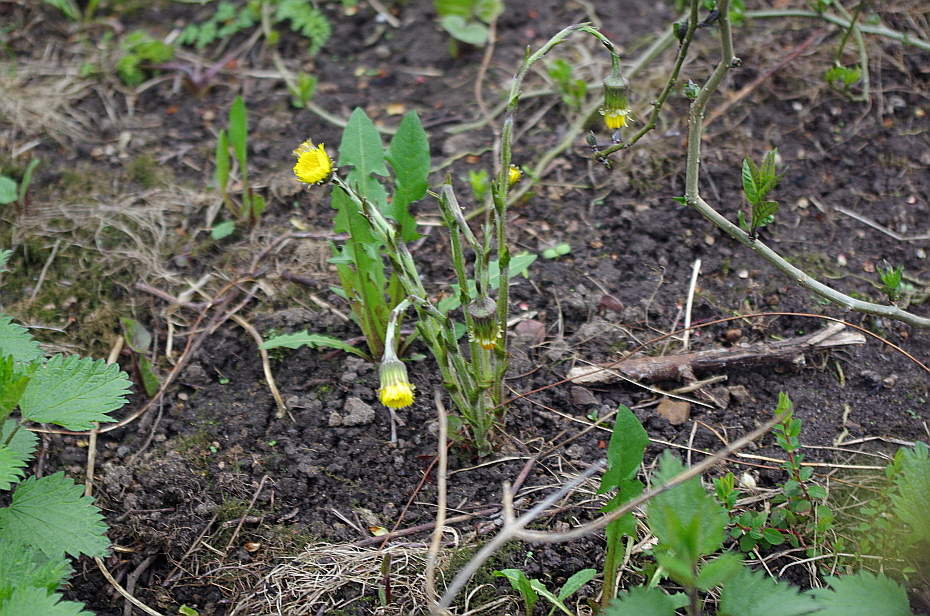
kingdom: Plantae
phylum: Tracheophyta
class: Magnoliopsida
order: Asterales
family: Asteraceae
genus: Tussilago
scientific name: Tussilago farfara
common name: Coltsfoot
